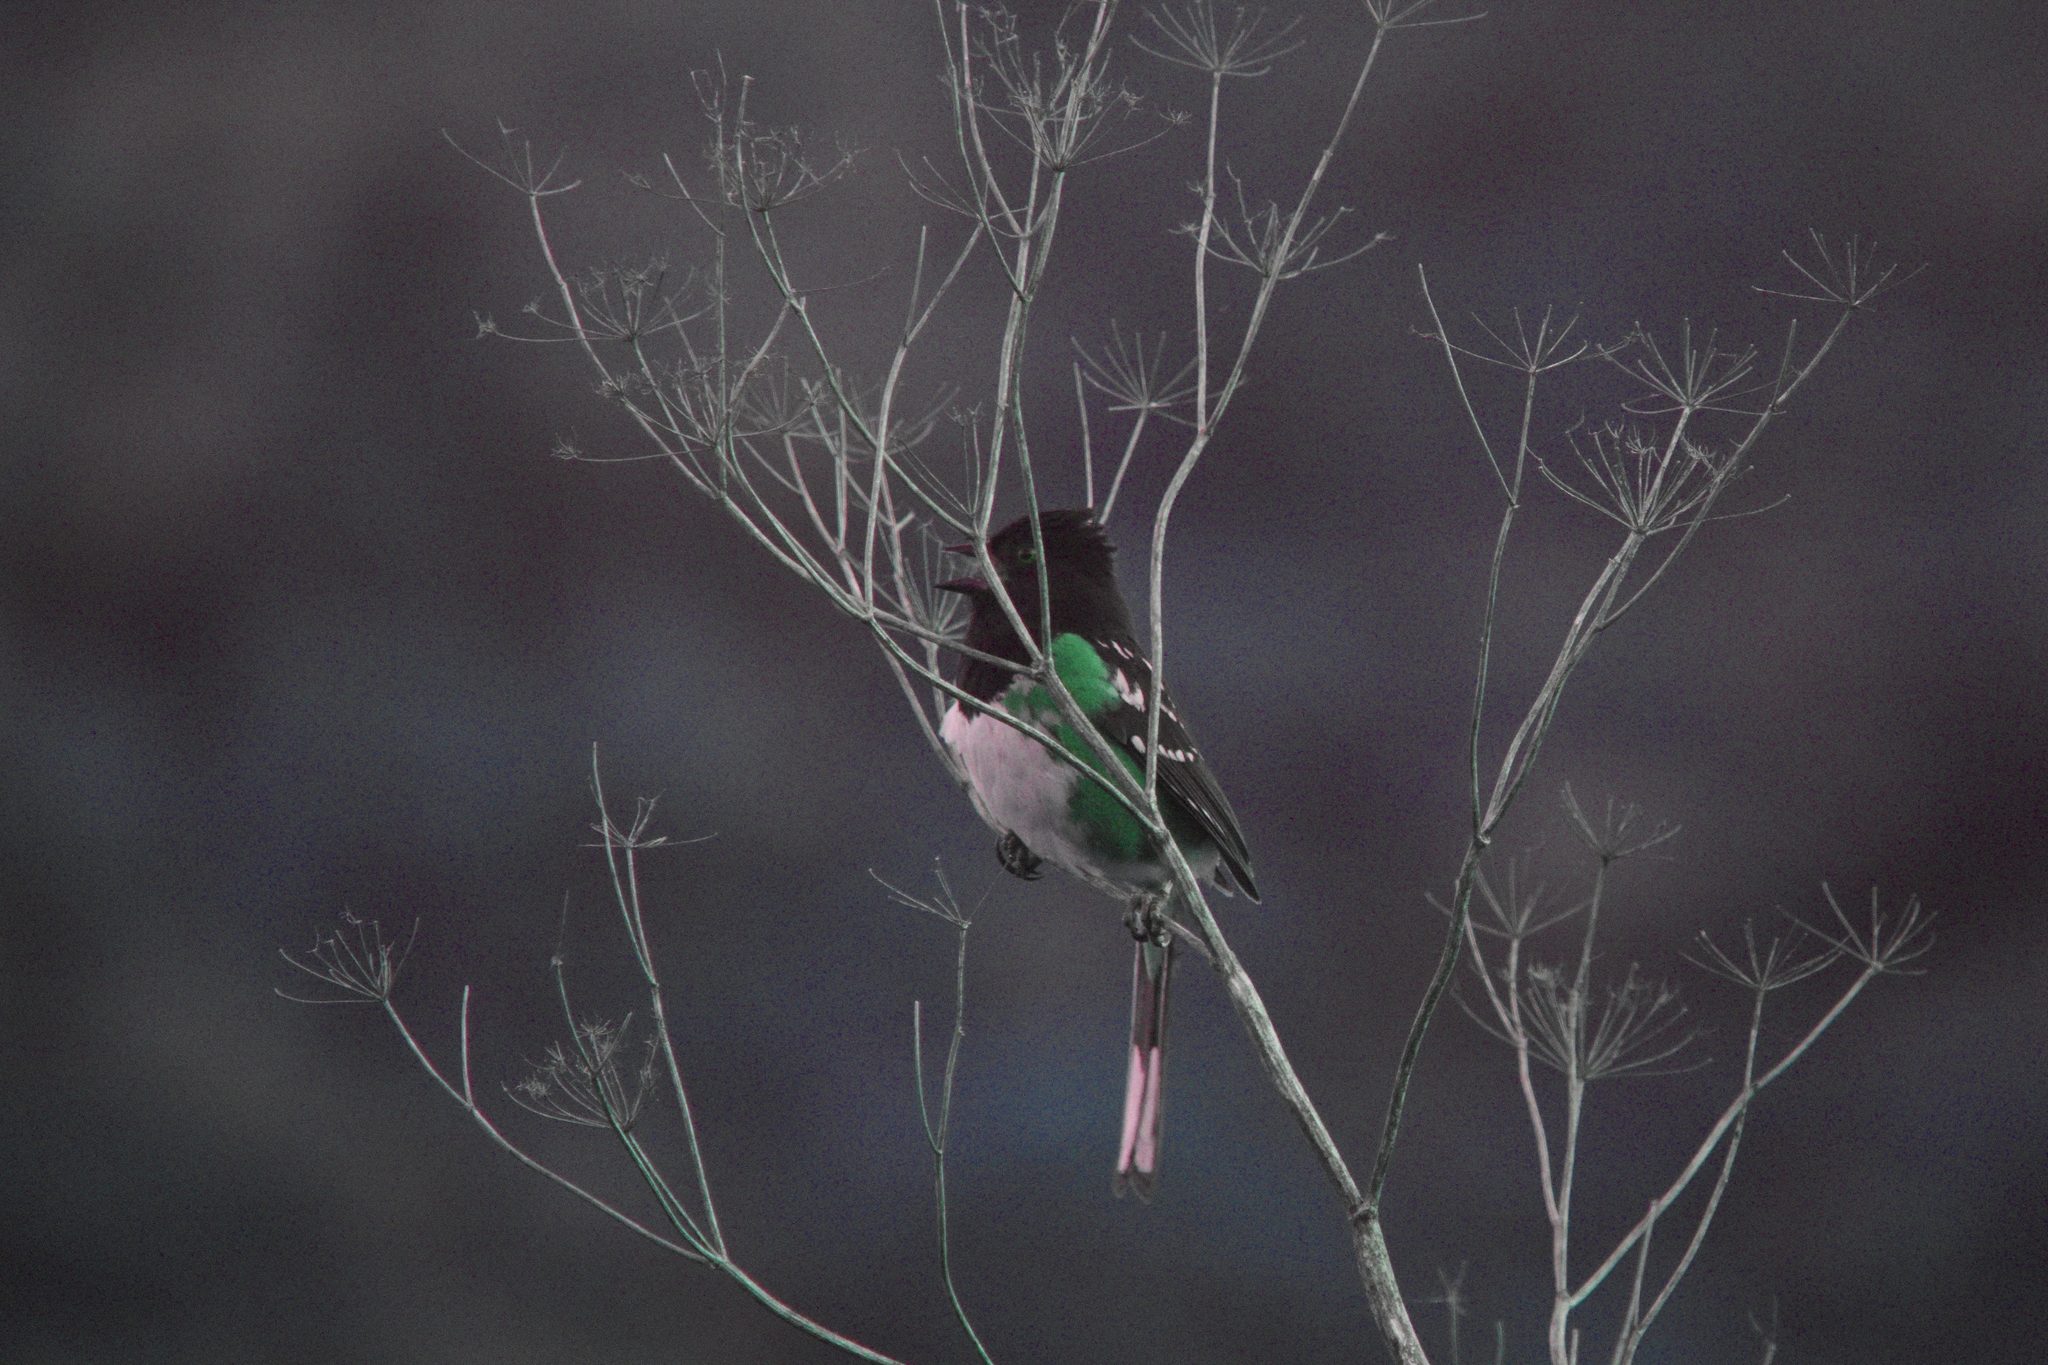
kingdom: Animalia
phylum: Chordata
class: Aves
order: Passeriformes
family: Passerellidae
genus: Pipilo
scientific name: Pipilo maculatus
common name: Spotted towhee
